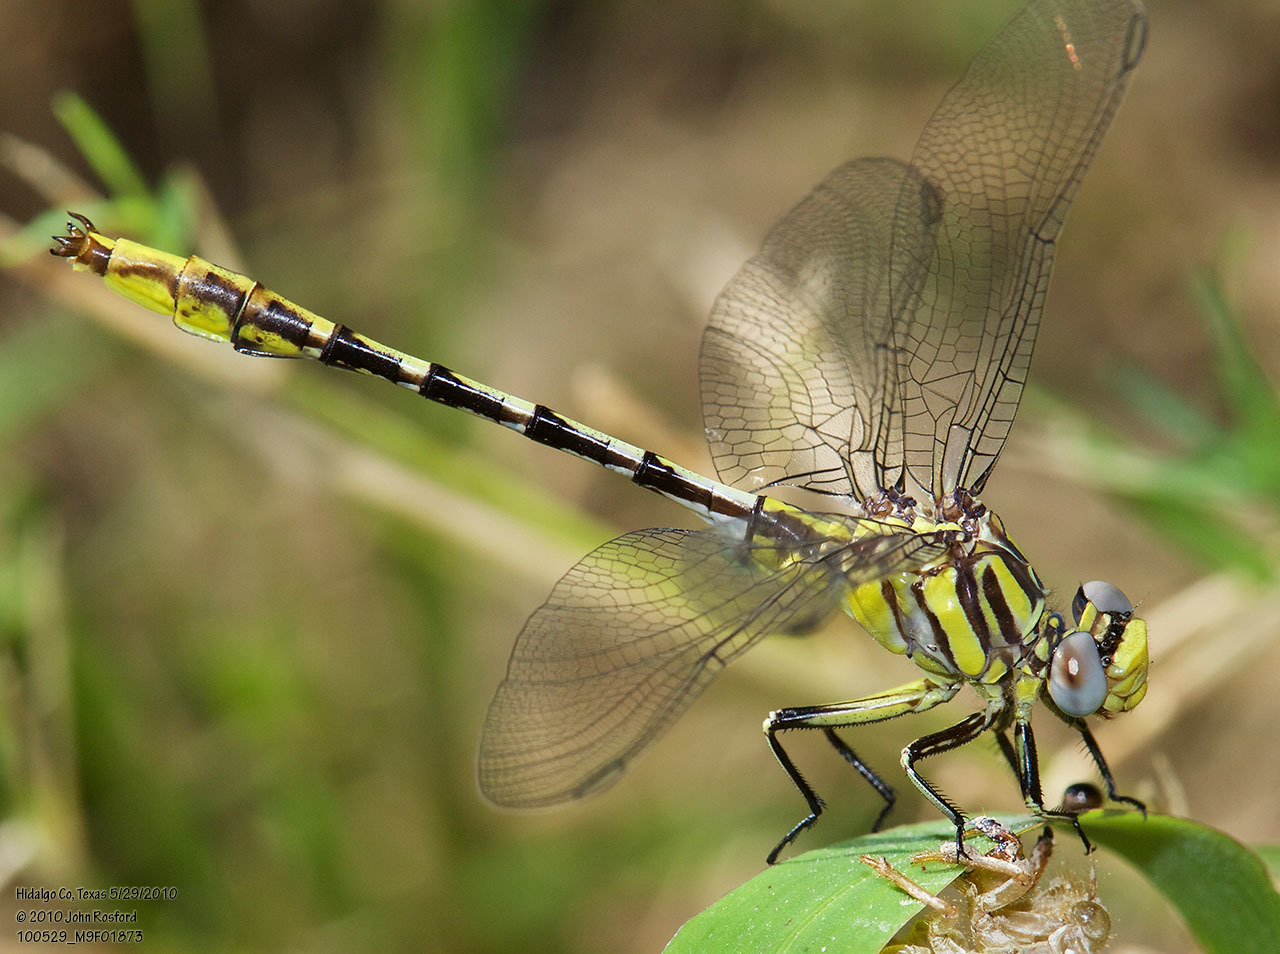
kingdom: Animalia
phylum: Arthropoda
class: Insecta
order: Odonata
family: Gomphidae
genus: Phanogomphus
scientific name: Phanogomphus militaris
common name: Sulphur-tipped clubtail
